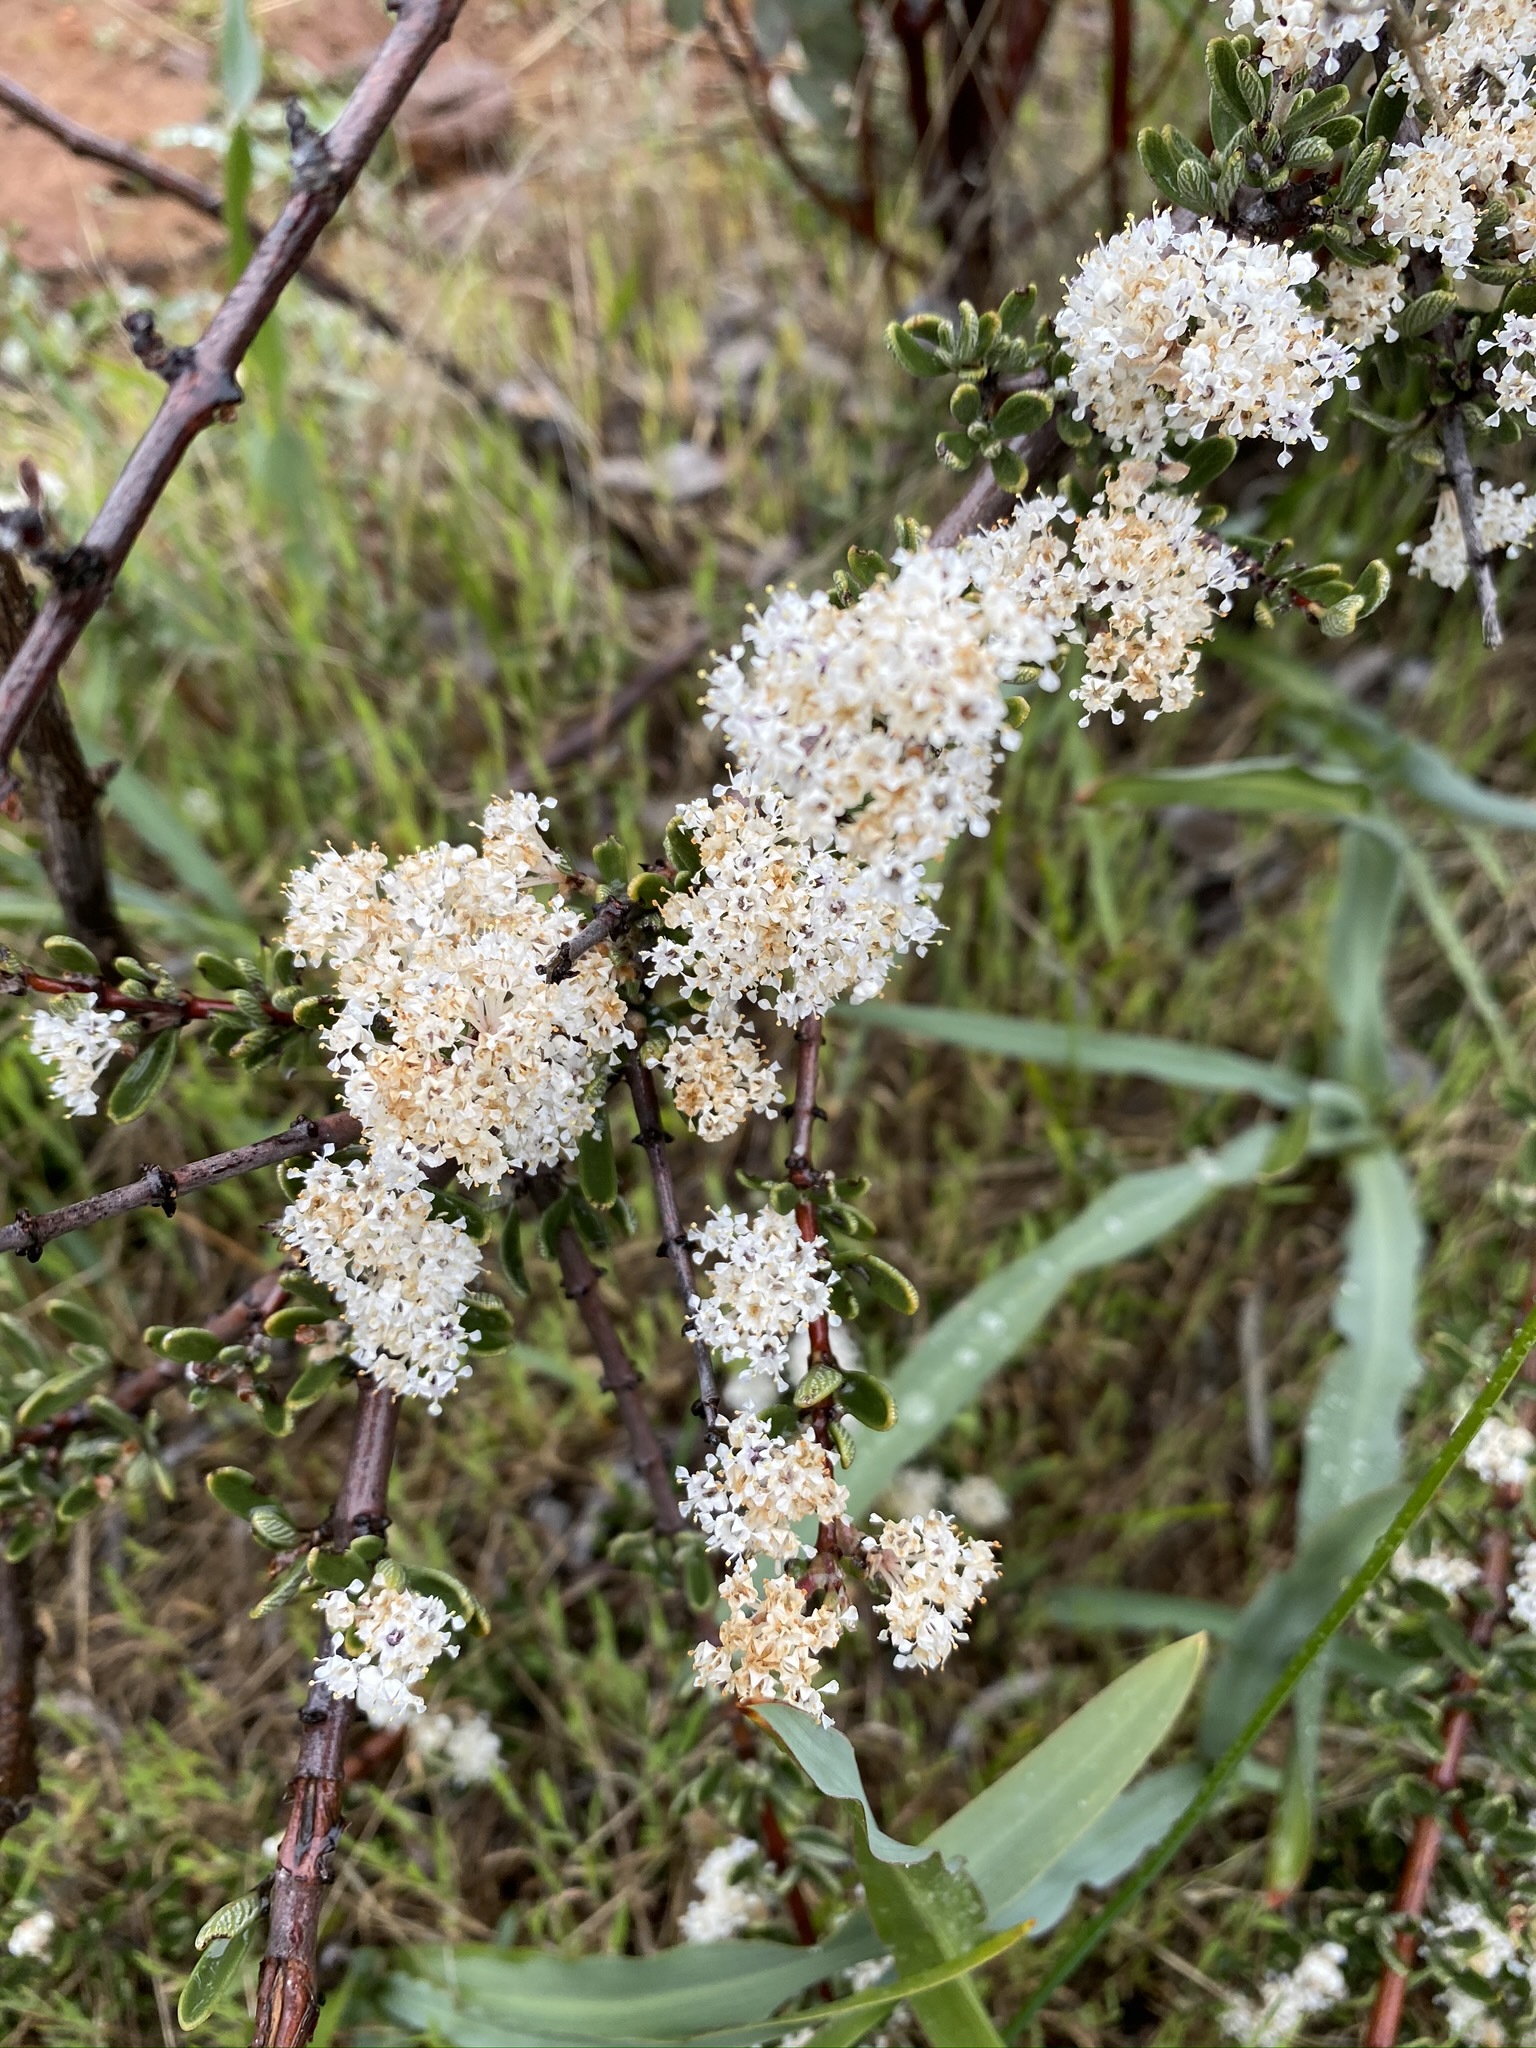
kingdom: Plantae
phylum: Tracheophyta
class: Magnoliopsida
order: Rosales
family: Rhamnaceae
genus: Ceanothus
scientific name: Ceanothus roderickii
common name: Pine hill ceanothus
